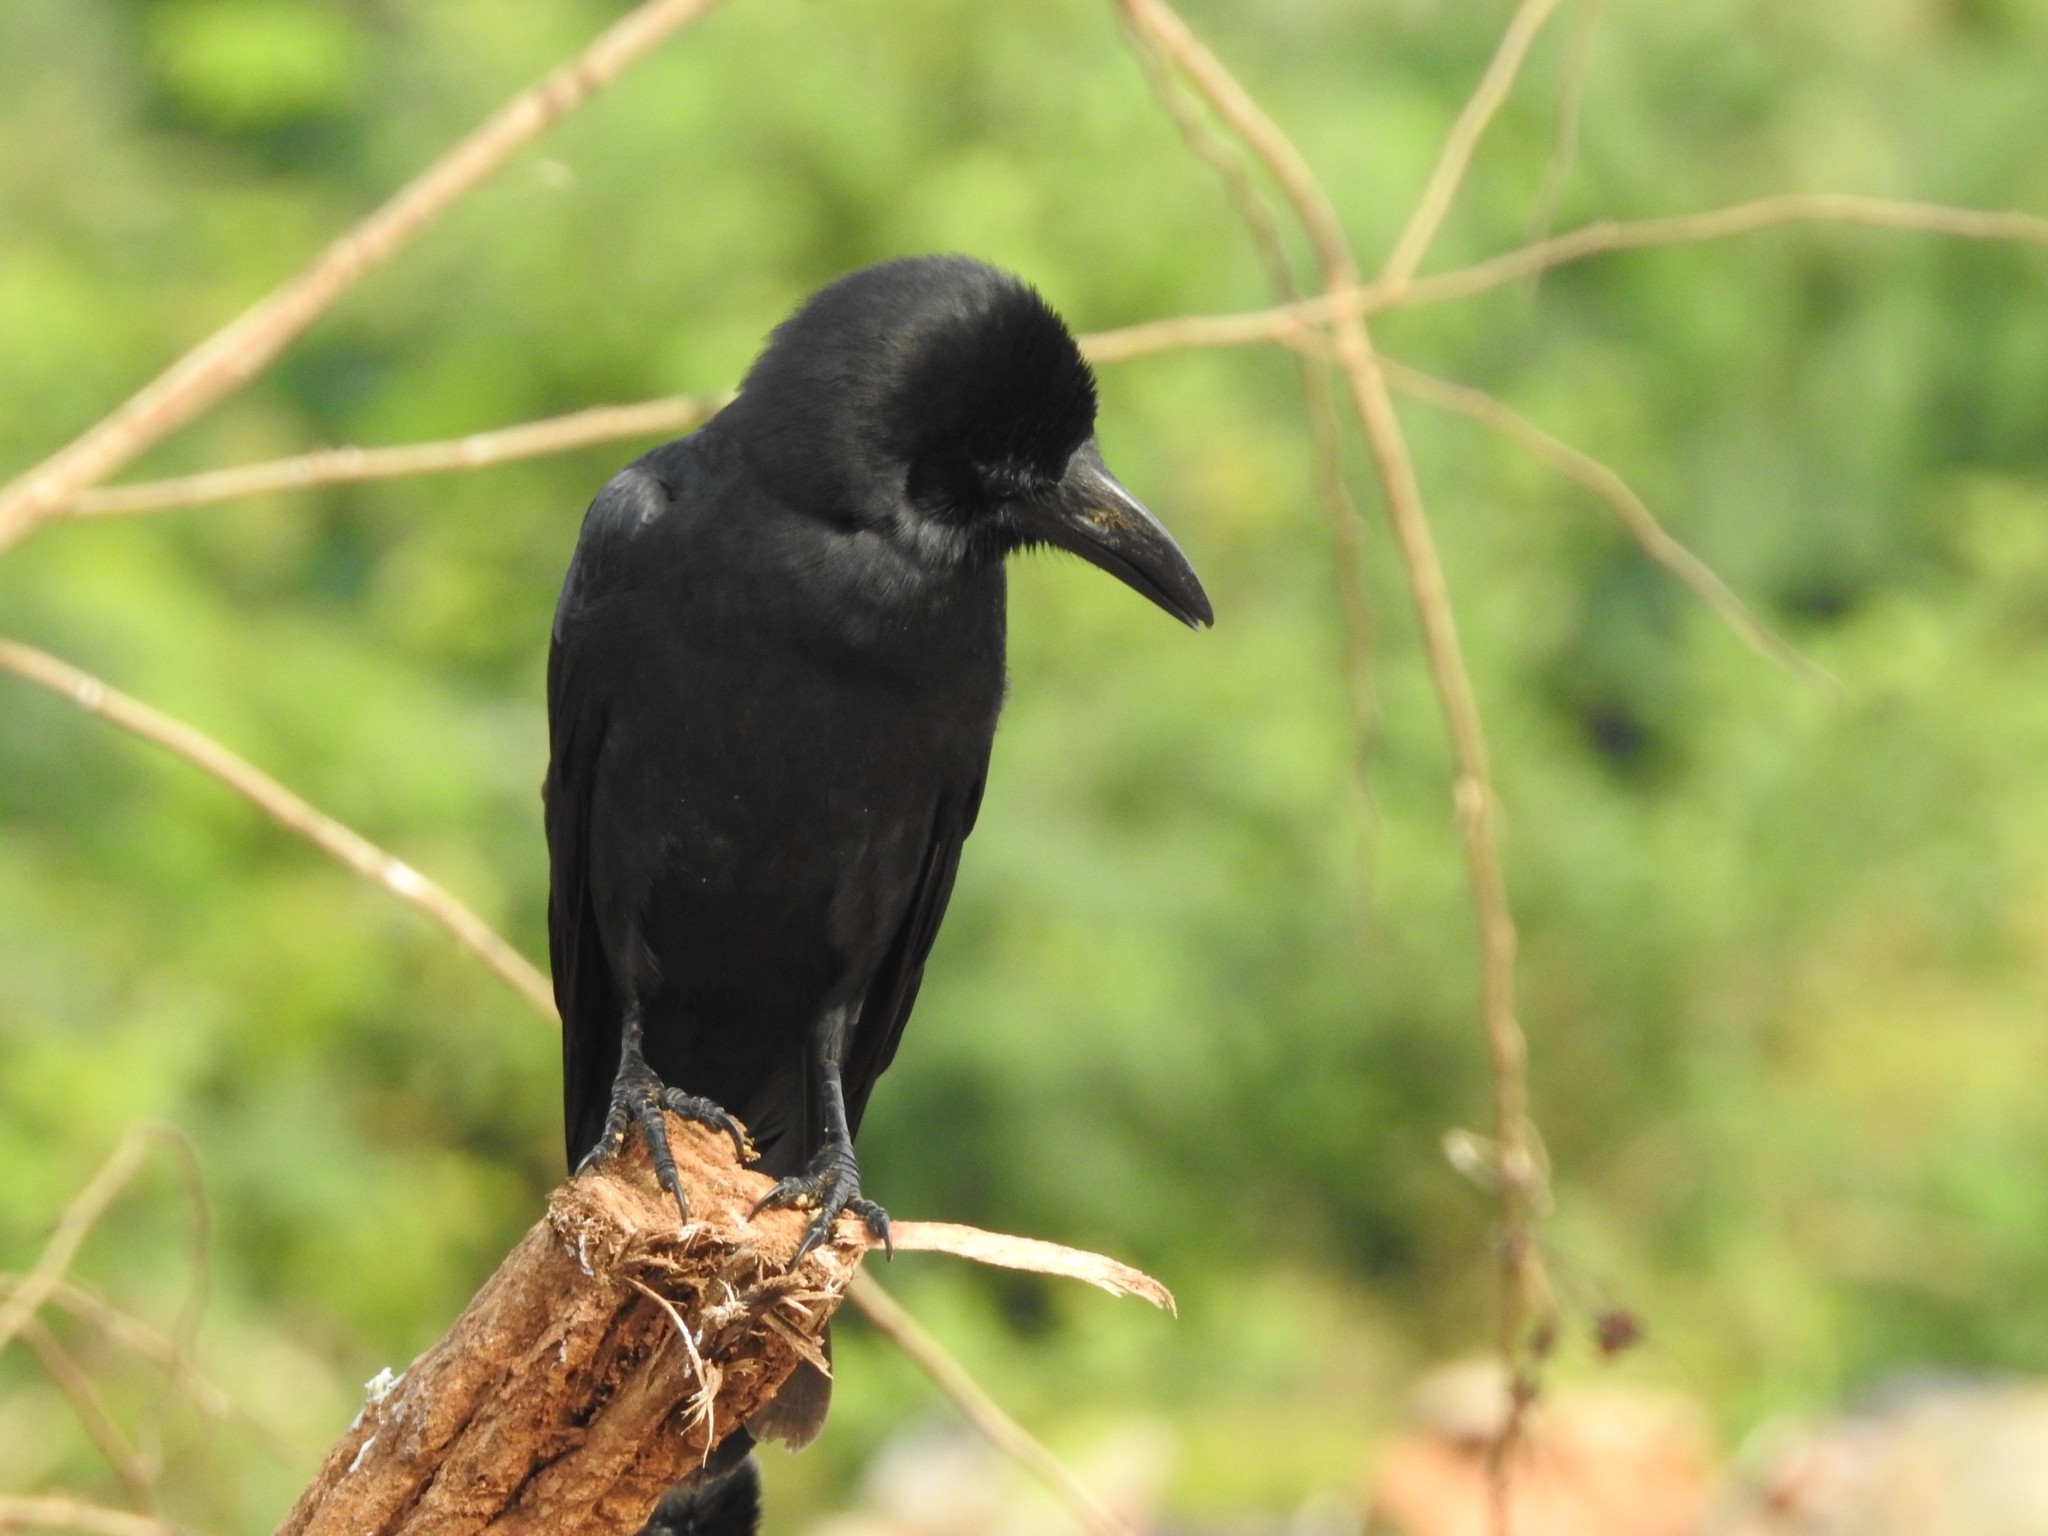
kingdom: Animalia
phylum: Chordata
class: Aves
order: Passeriformes
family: Corvidae
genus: Corvus
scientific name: Corvus macrorhynchos
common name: Large-billed crow
